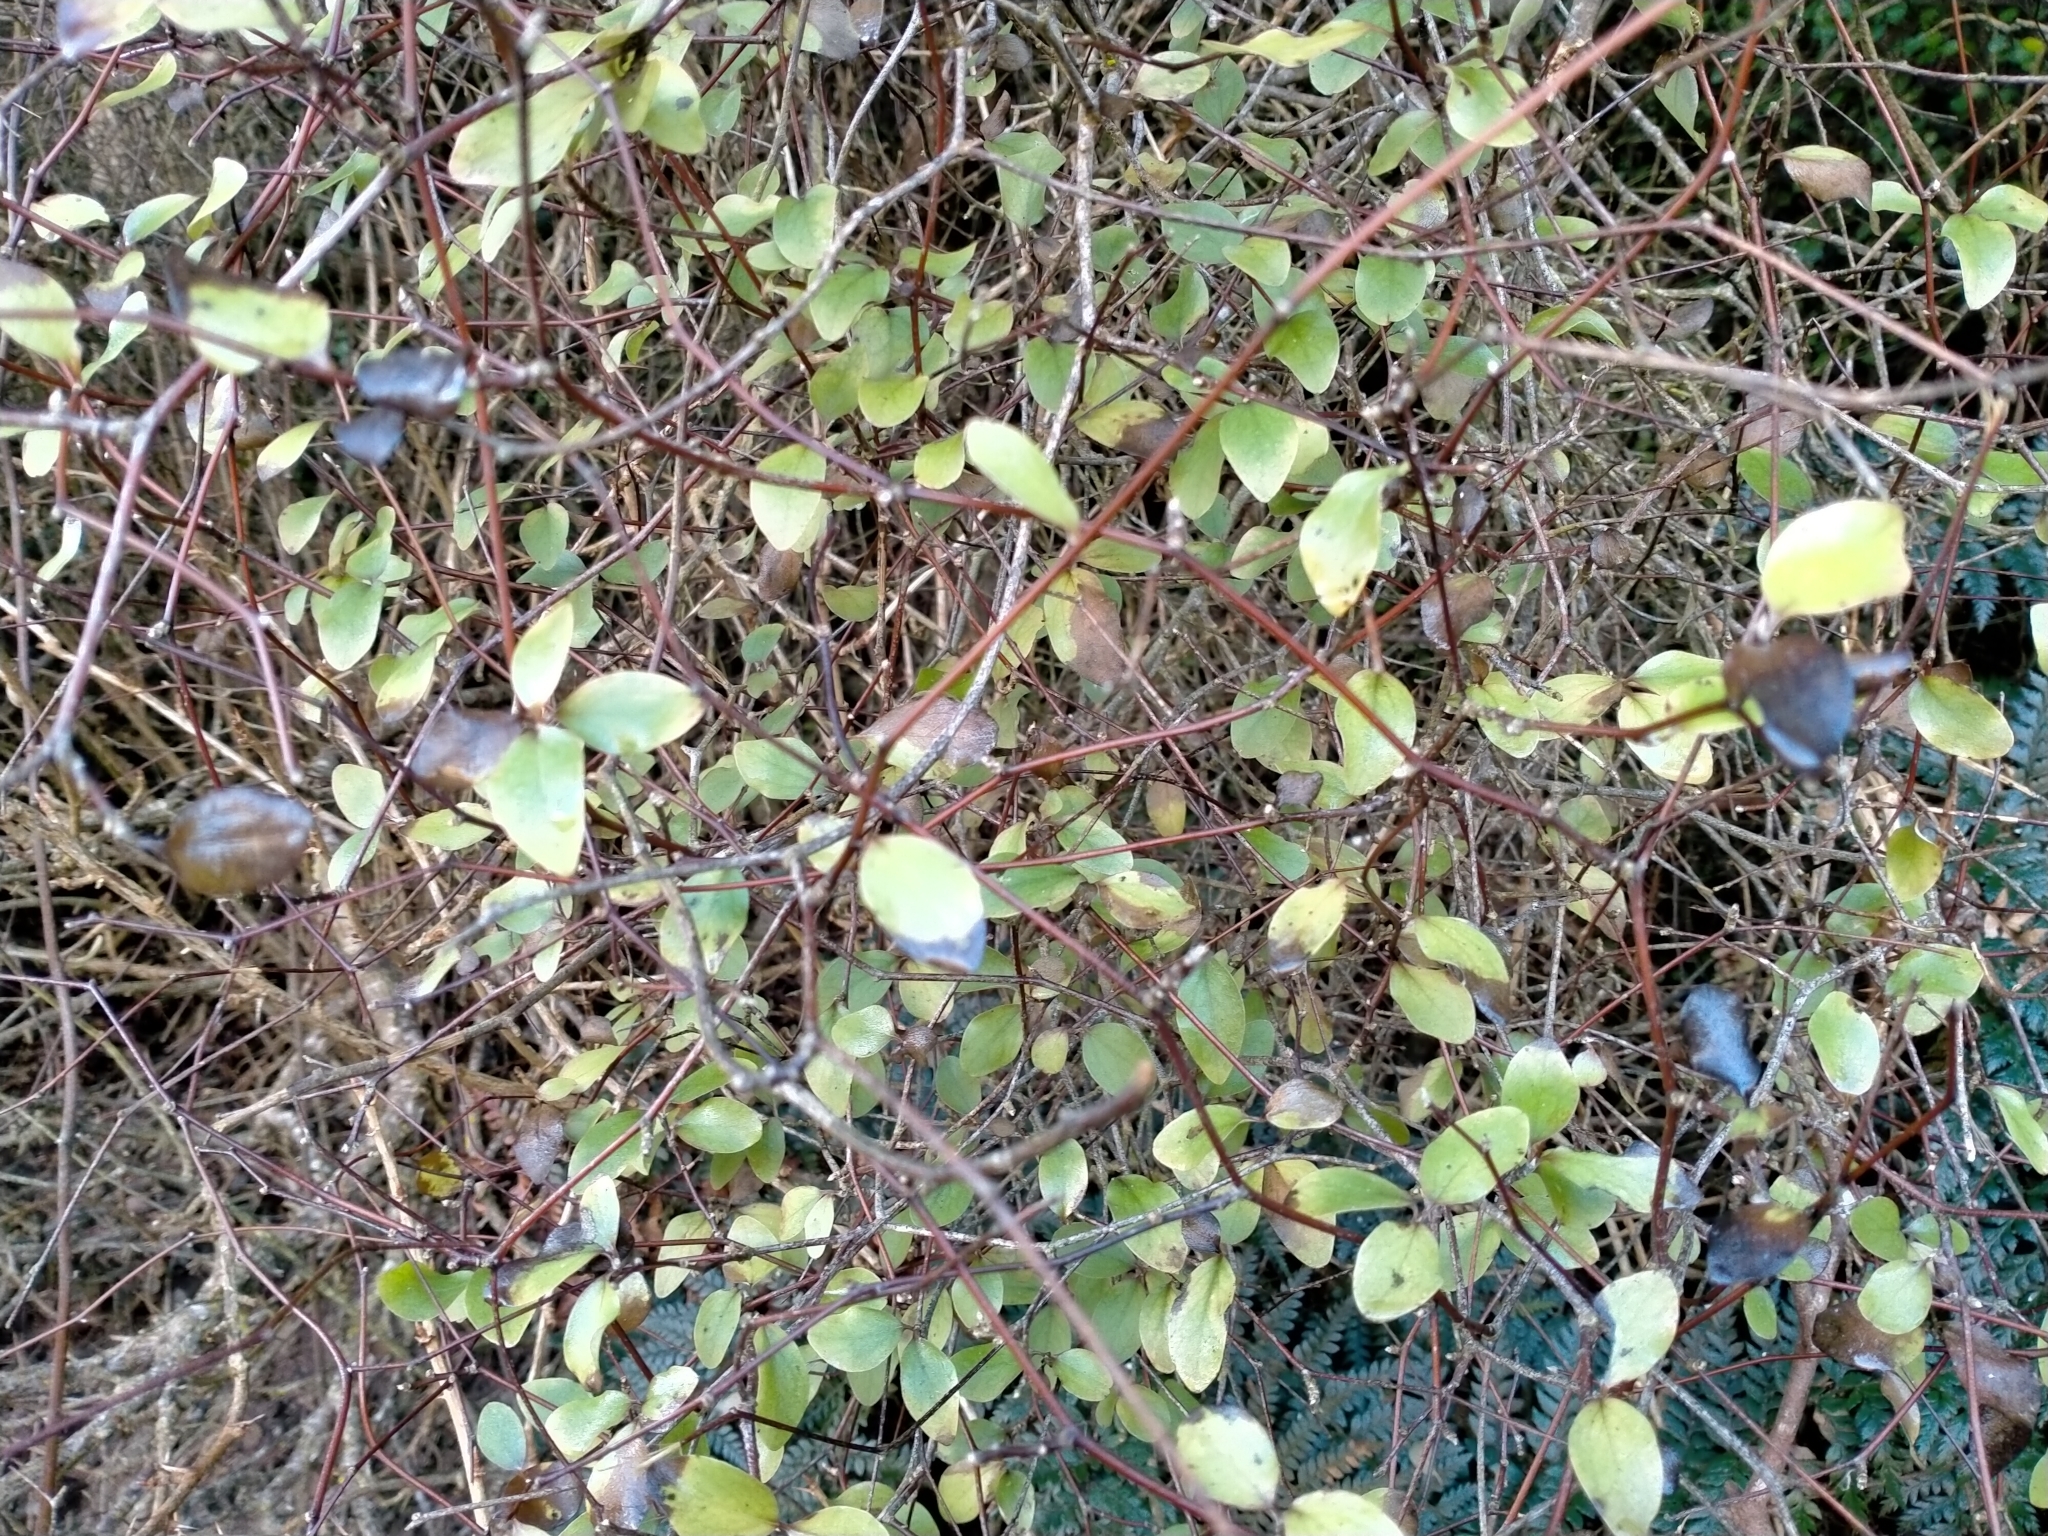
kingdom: Plantae
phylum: Tracheophyta
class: Magnoliopsida
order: Asterales
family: Asteraceae
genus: Olearia
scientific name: Olearia fragrantissima
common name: Fragrant tree daisy
